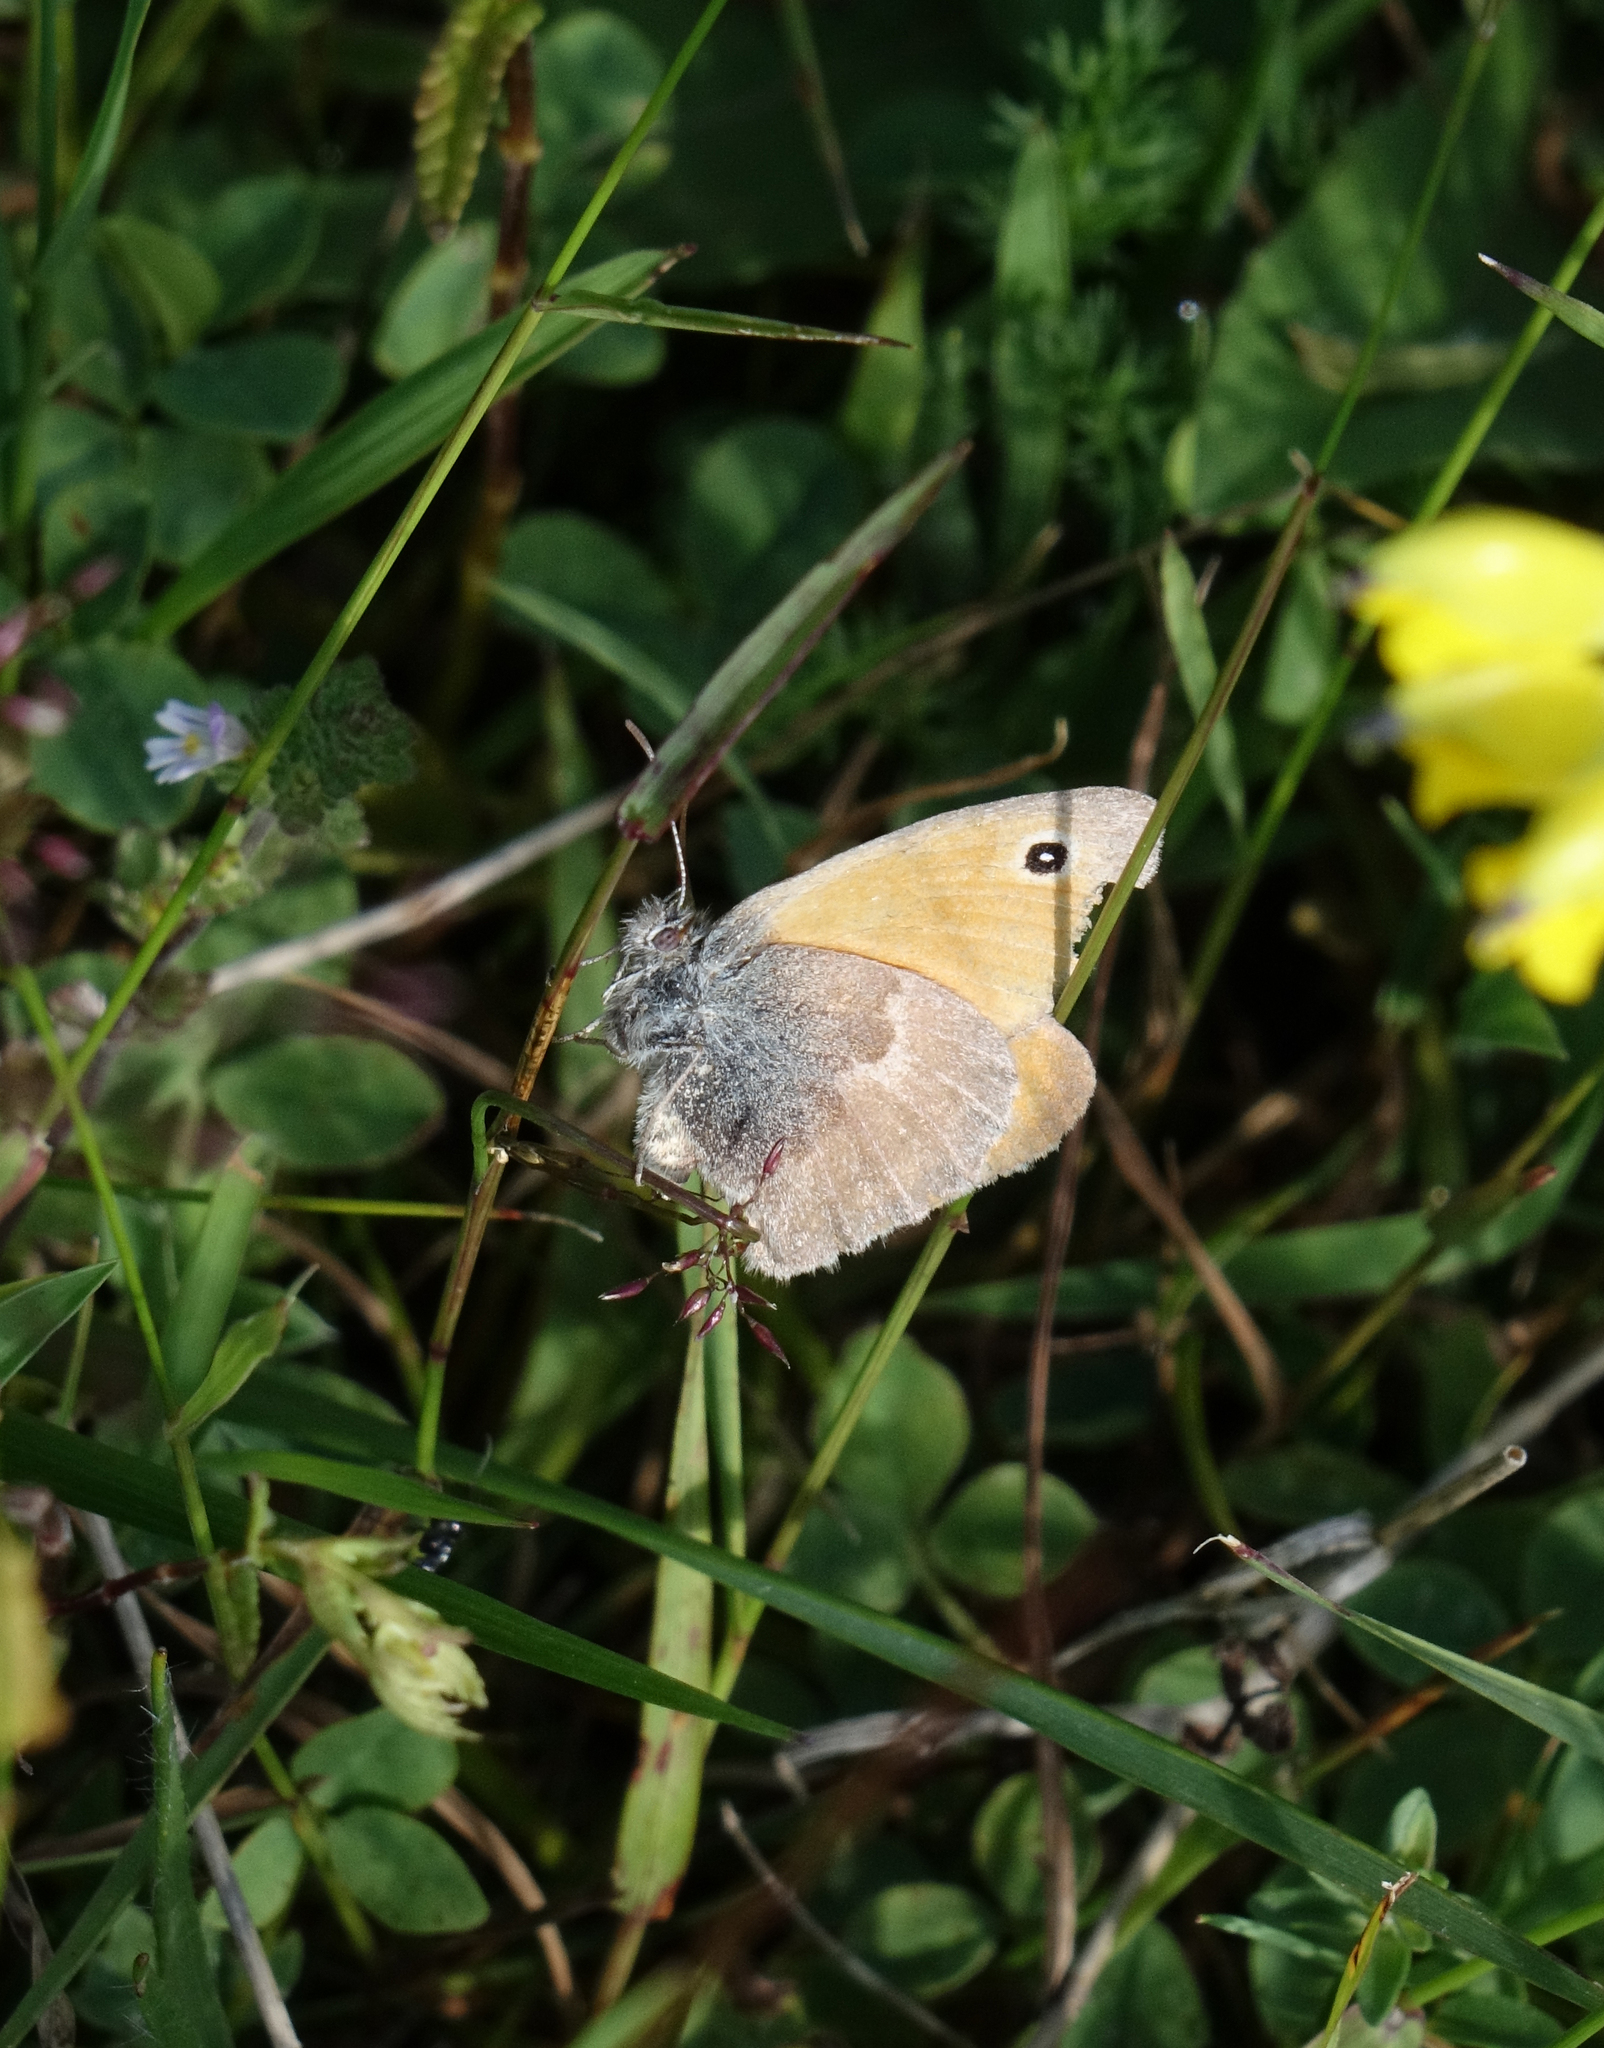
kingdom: Animalia
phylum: Arthropoda
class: Insecta
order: Lepidoptera
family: Nymphalidae
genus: Coenonympha
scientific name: Coenonympha pamphilus
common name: Small heath
